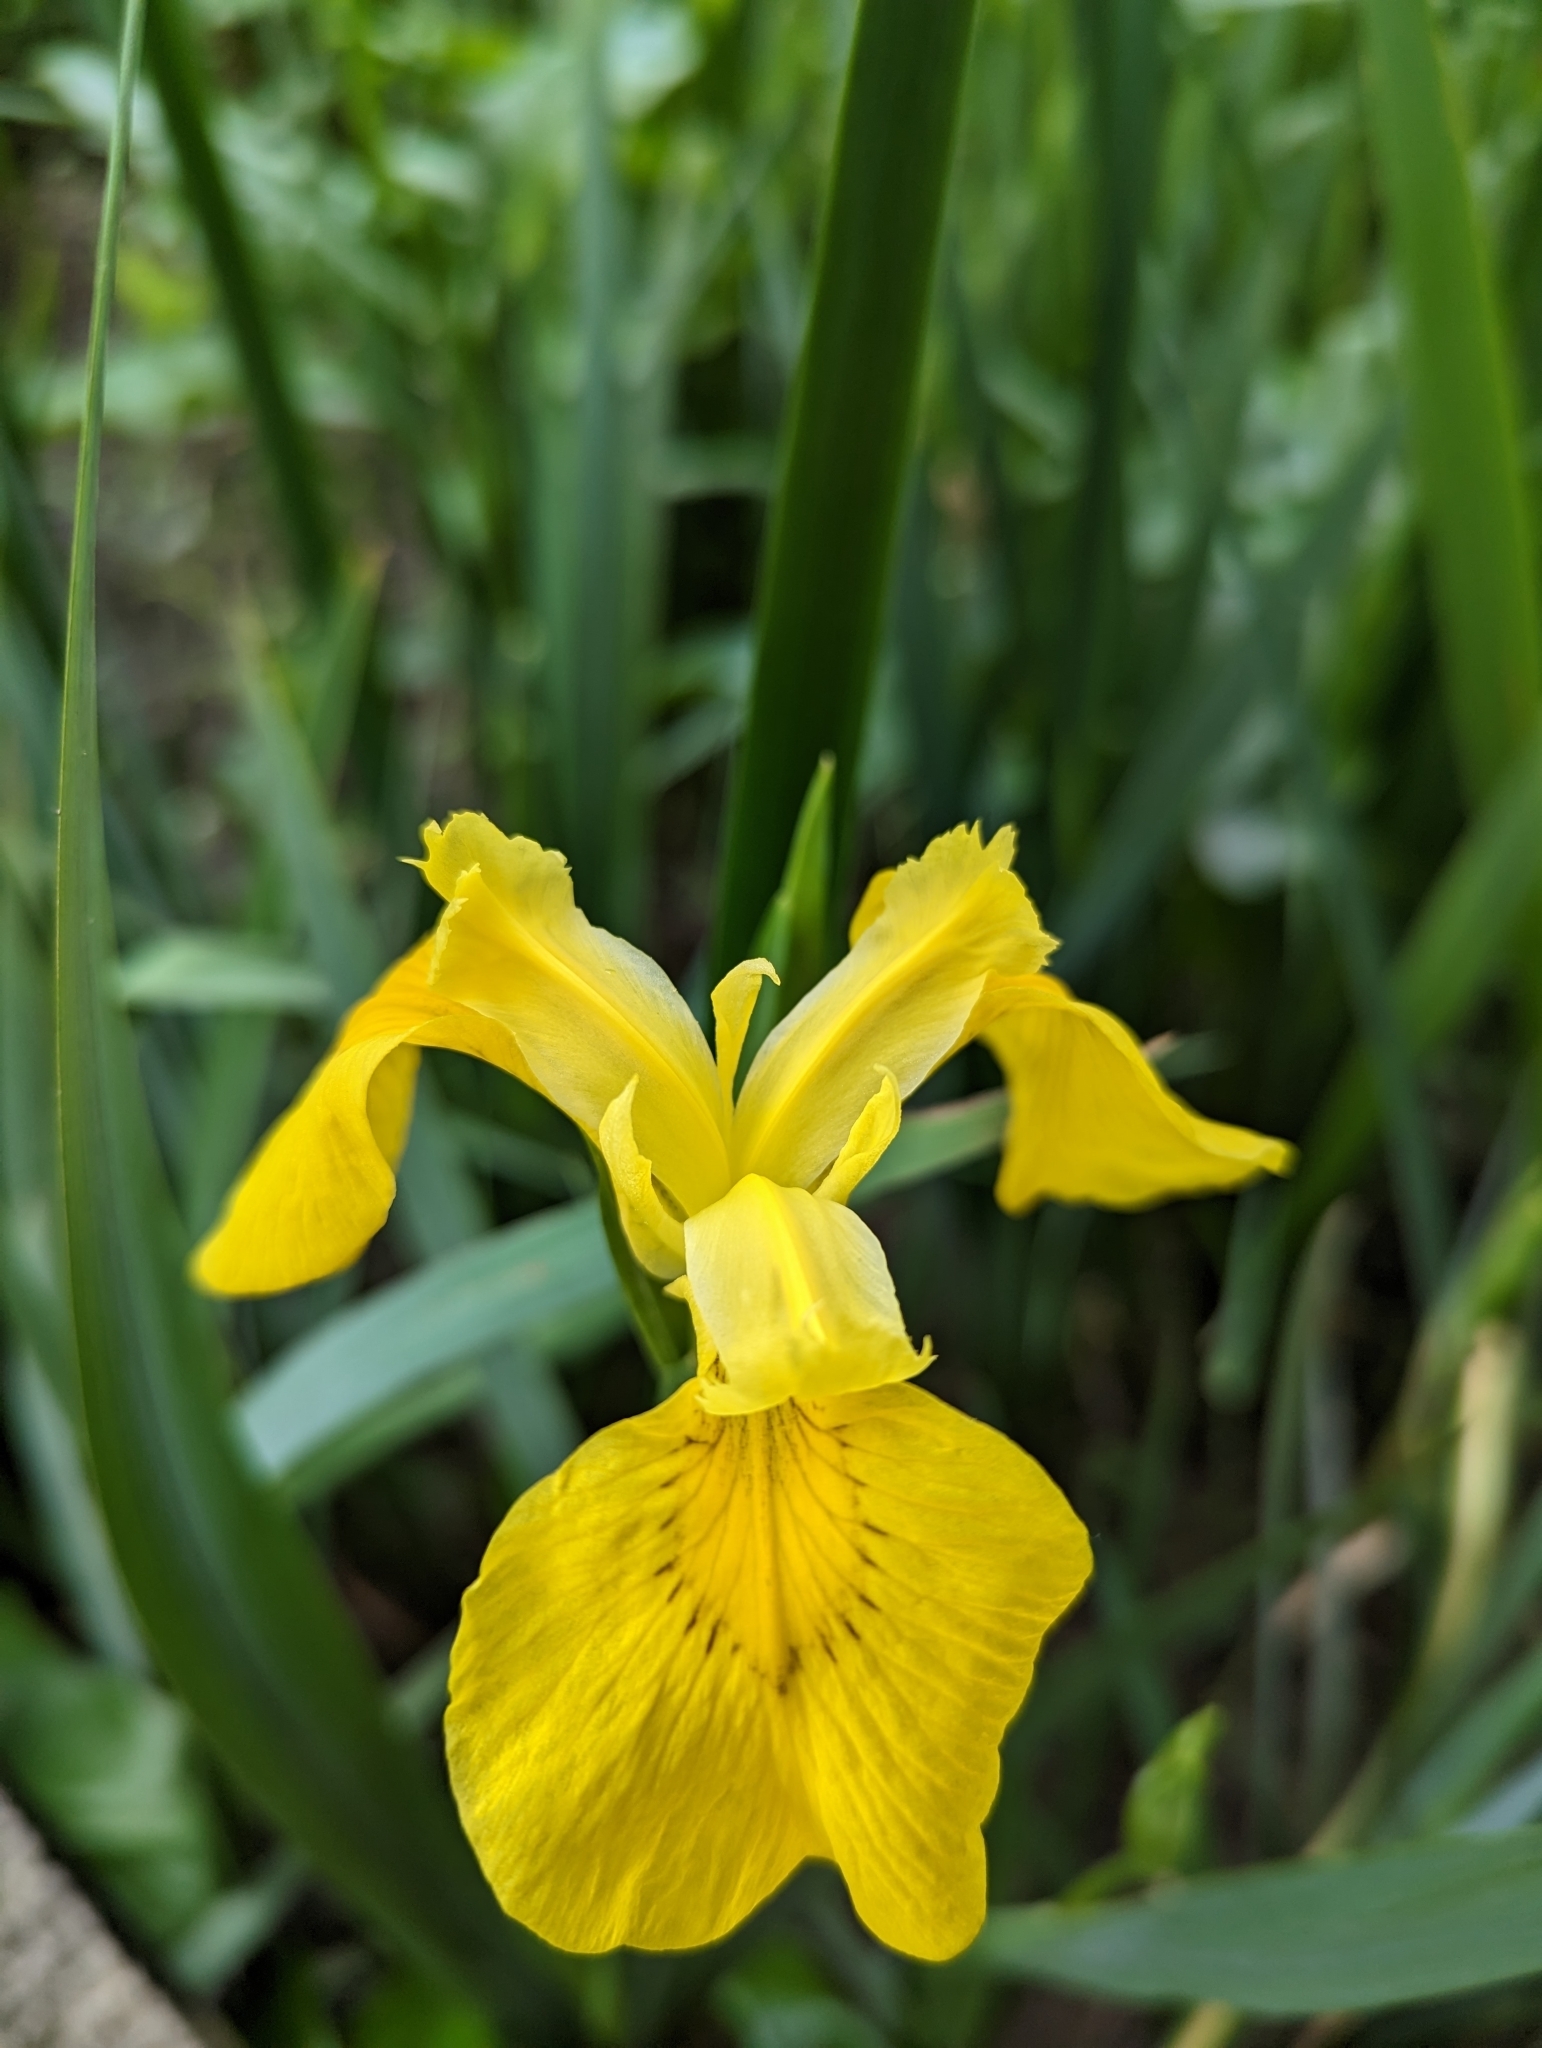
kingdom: Plantae
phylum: Tracheophyta
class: Liliopsida
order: Asparagales
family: Iridaceae
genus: Iris
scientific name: Iris pseudacorus
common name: Yellow flag
